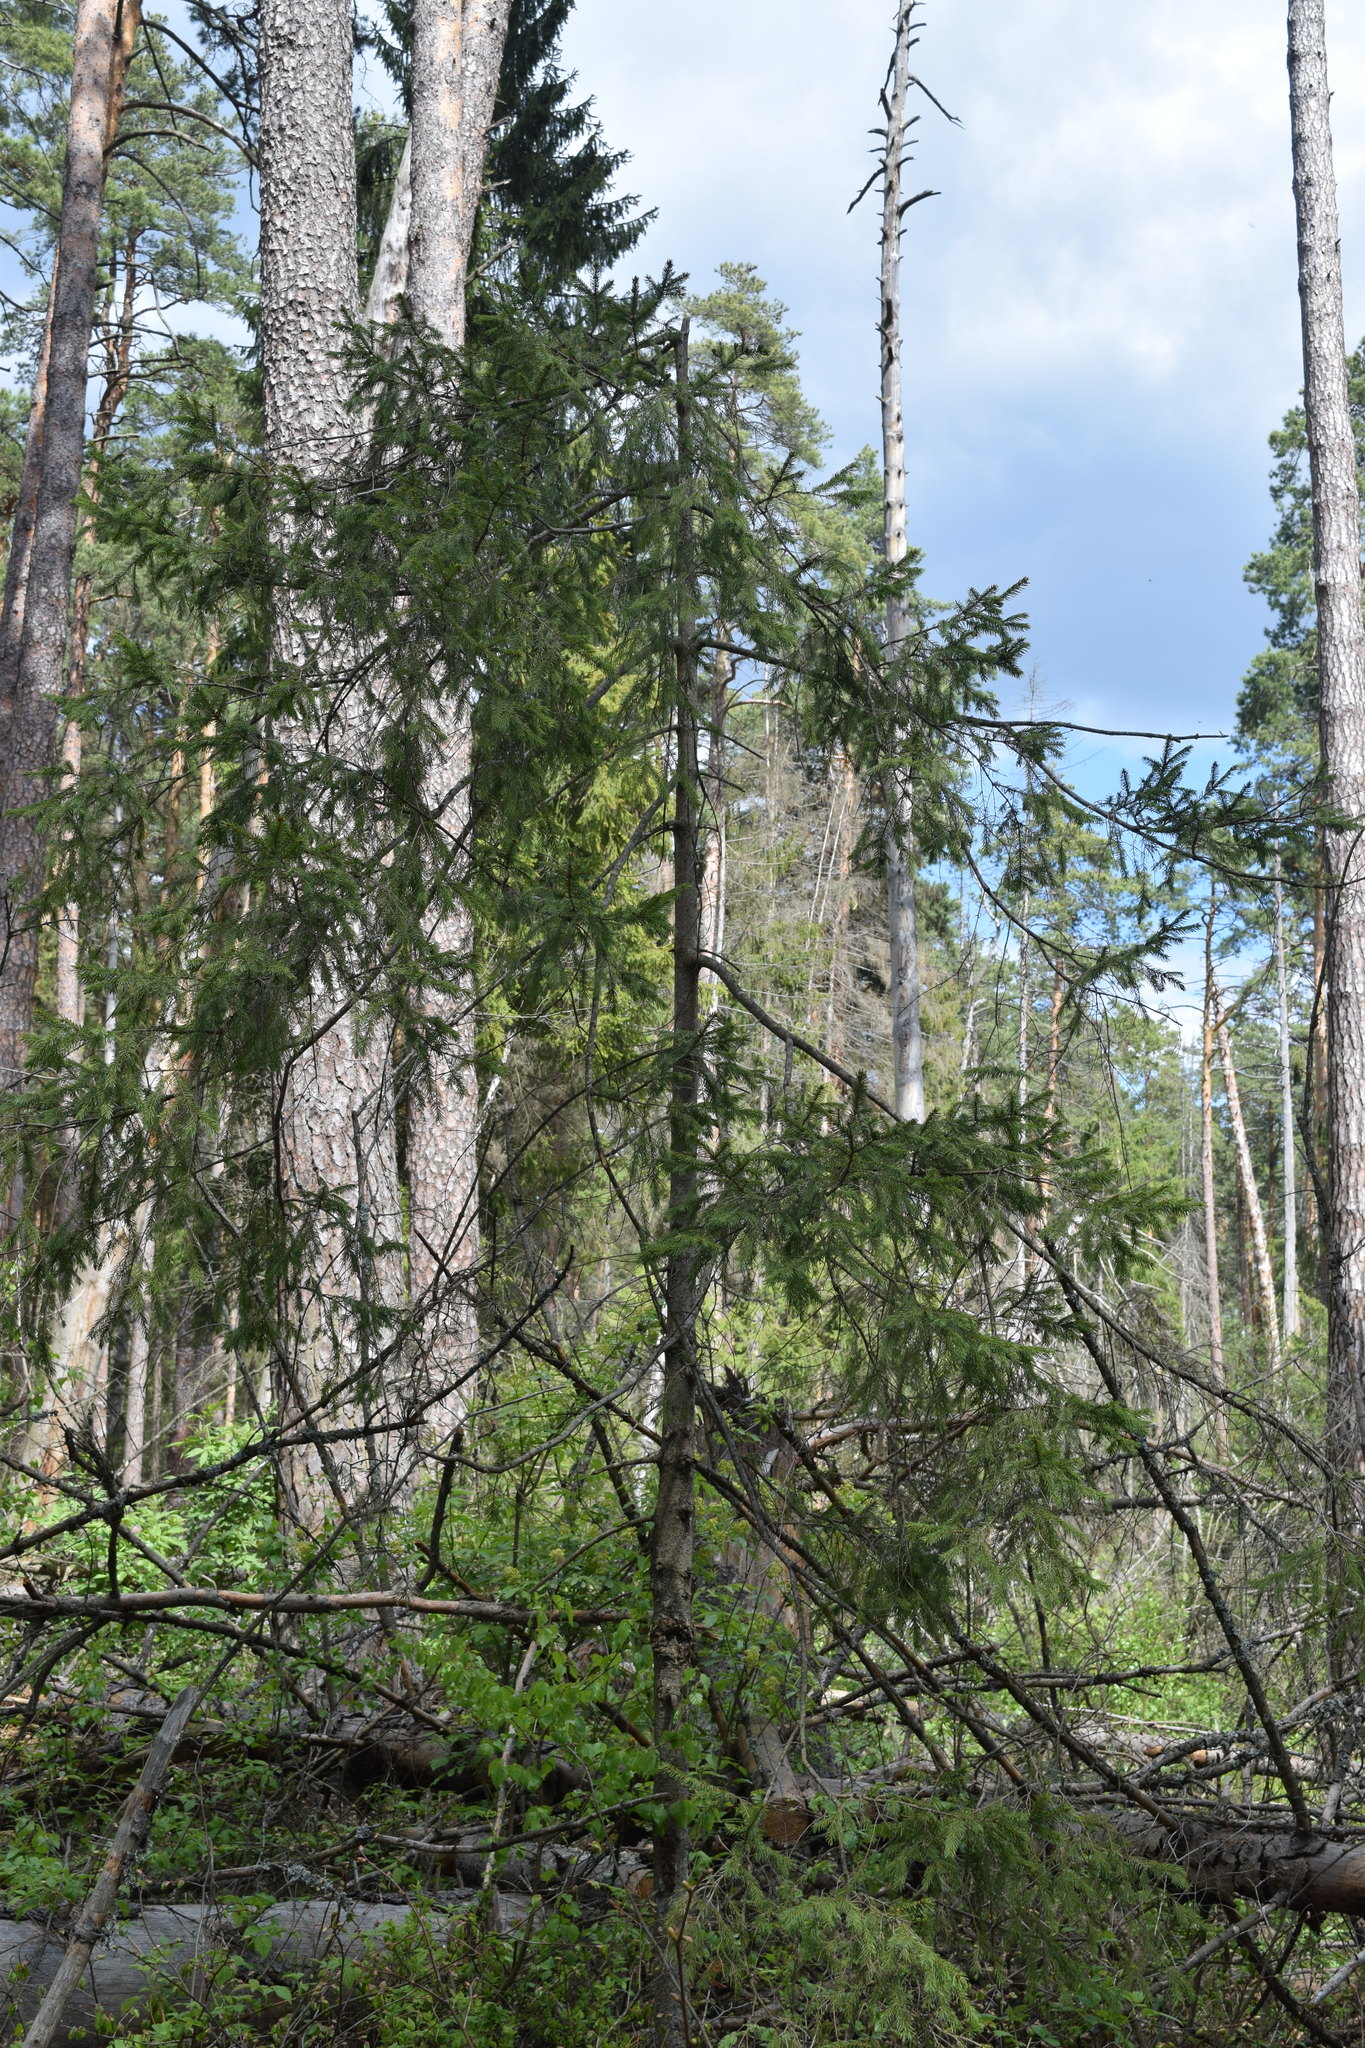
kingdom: Plantae
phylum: Tracheophyta
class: Pinopsida
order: Pinales
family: Pinaceae
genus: Picea
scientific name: Picea abies
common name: Norway spruce
